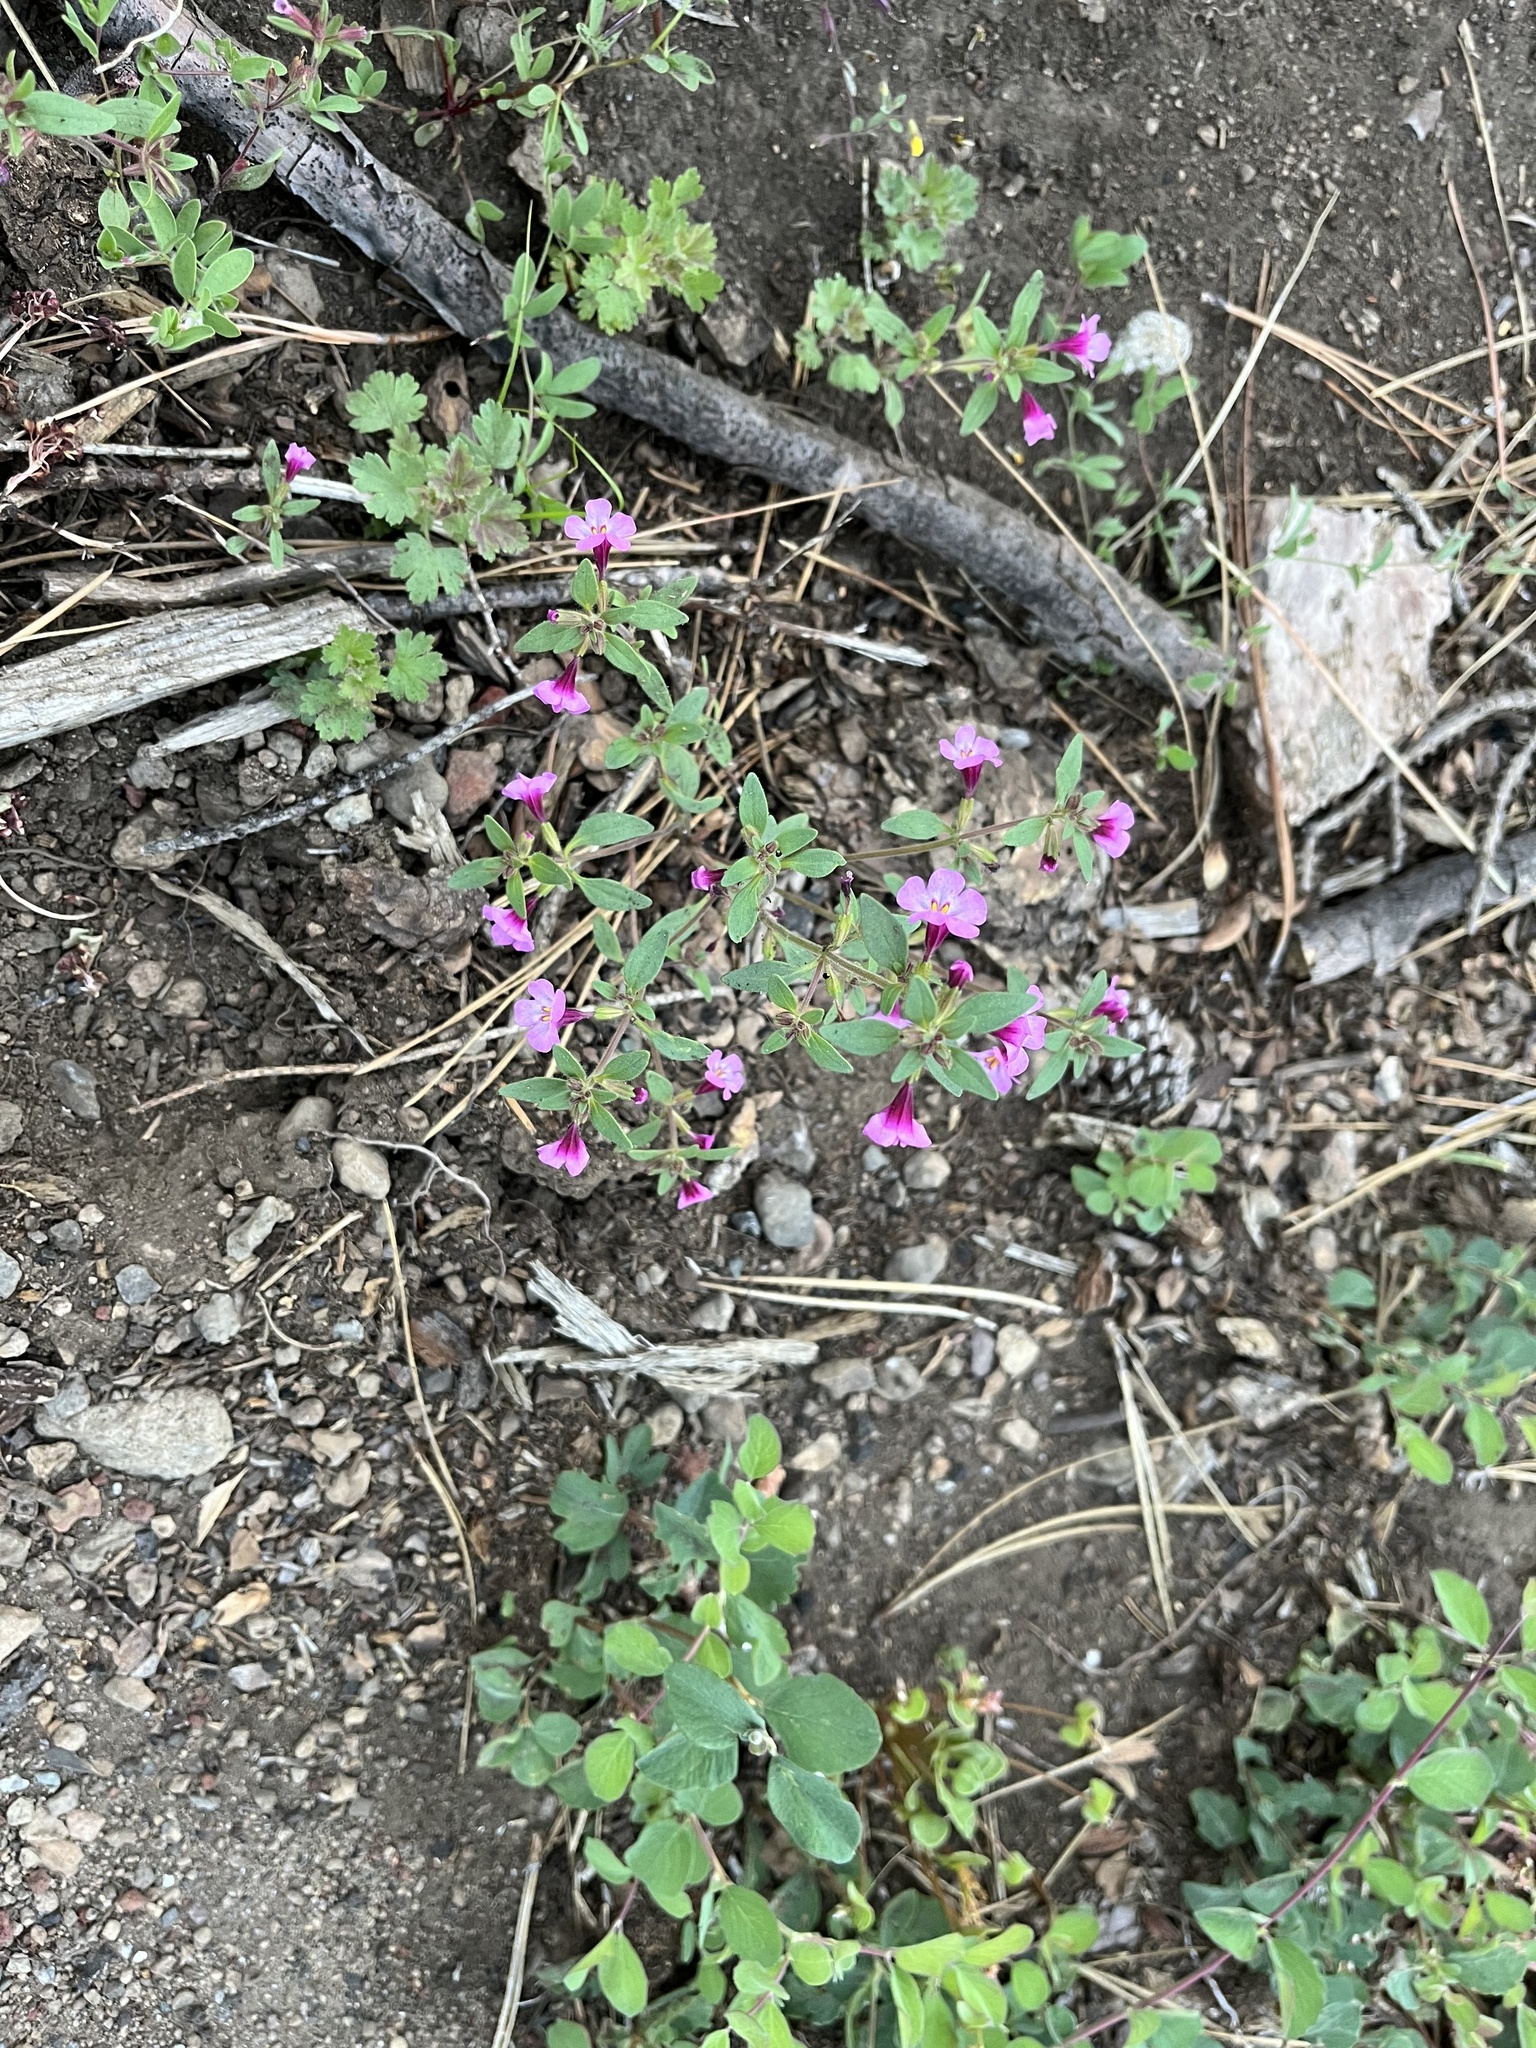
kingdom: Plantae
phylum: Tracheophyta
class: Magnoliopsida
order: Lamiales
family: Phrymaceae
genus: Diplacus
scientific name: Diplacus torreyi
